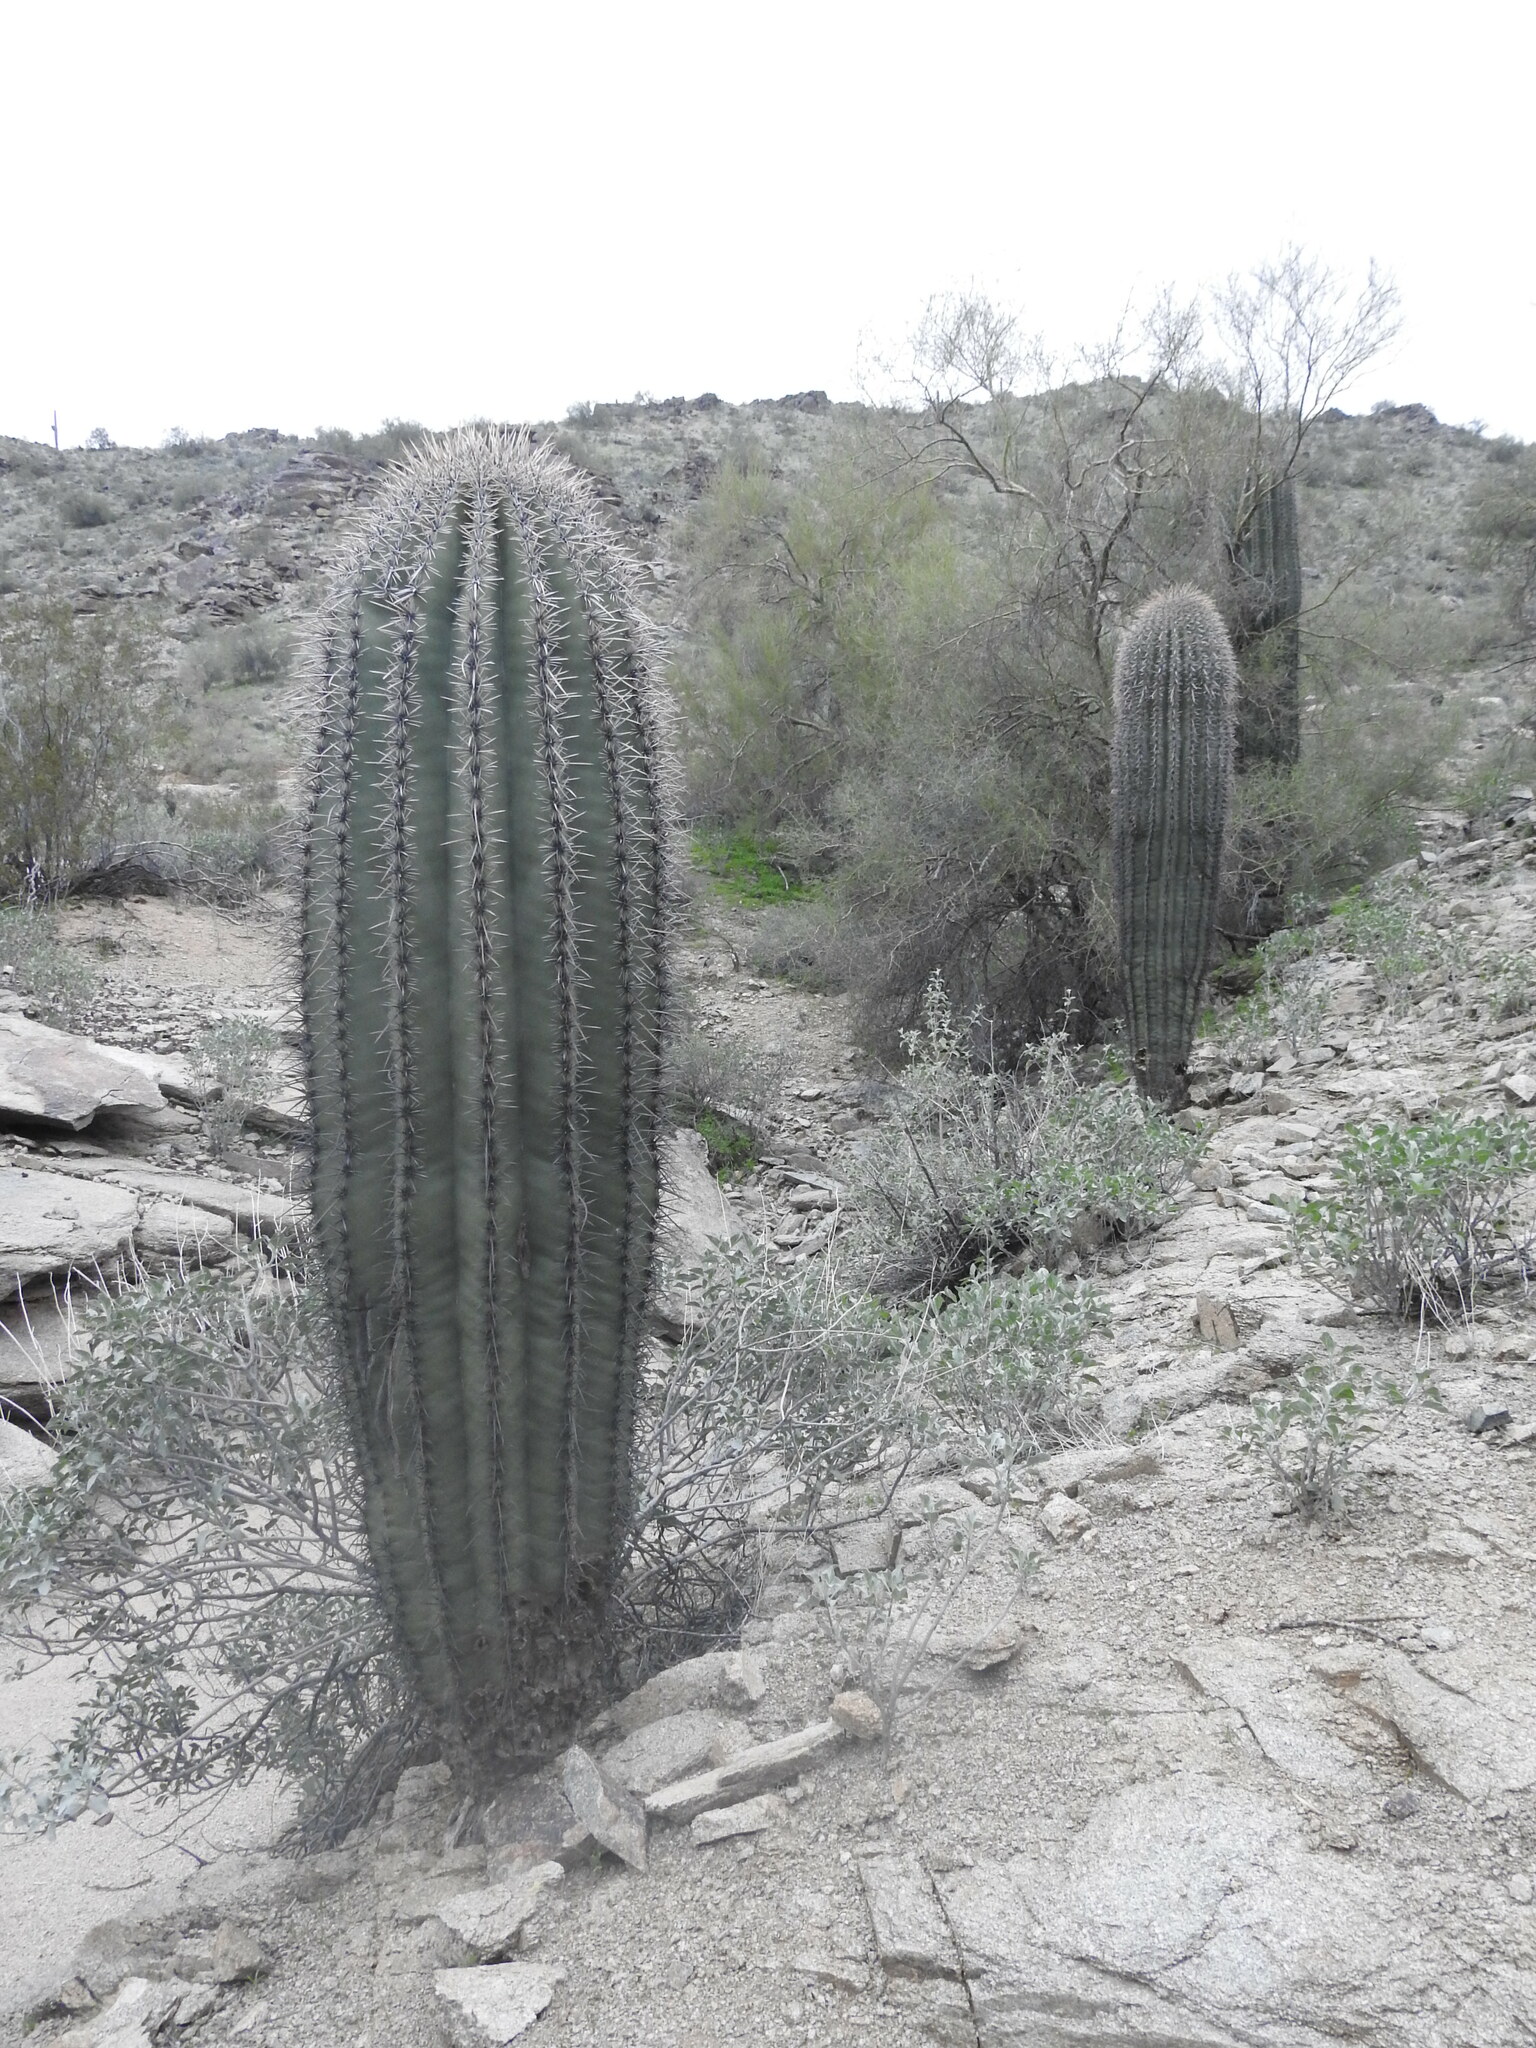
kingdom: Plantae
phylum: Tracheophyta
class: Magnoliopsida
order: Caryophyllales
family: Cactaceae
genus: Carnegiea
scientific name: Carnegiea gigantea
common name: Saguaro
